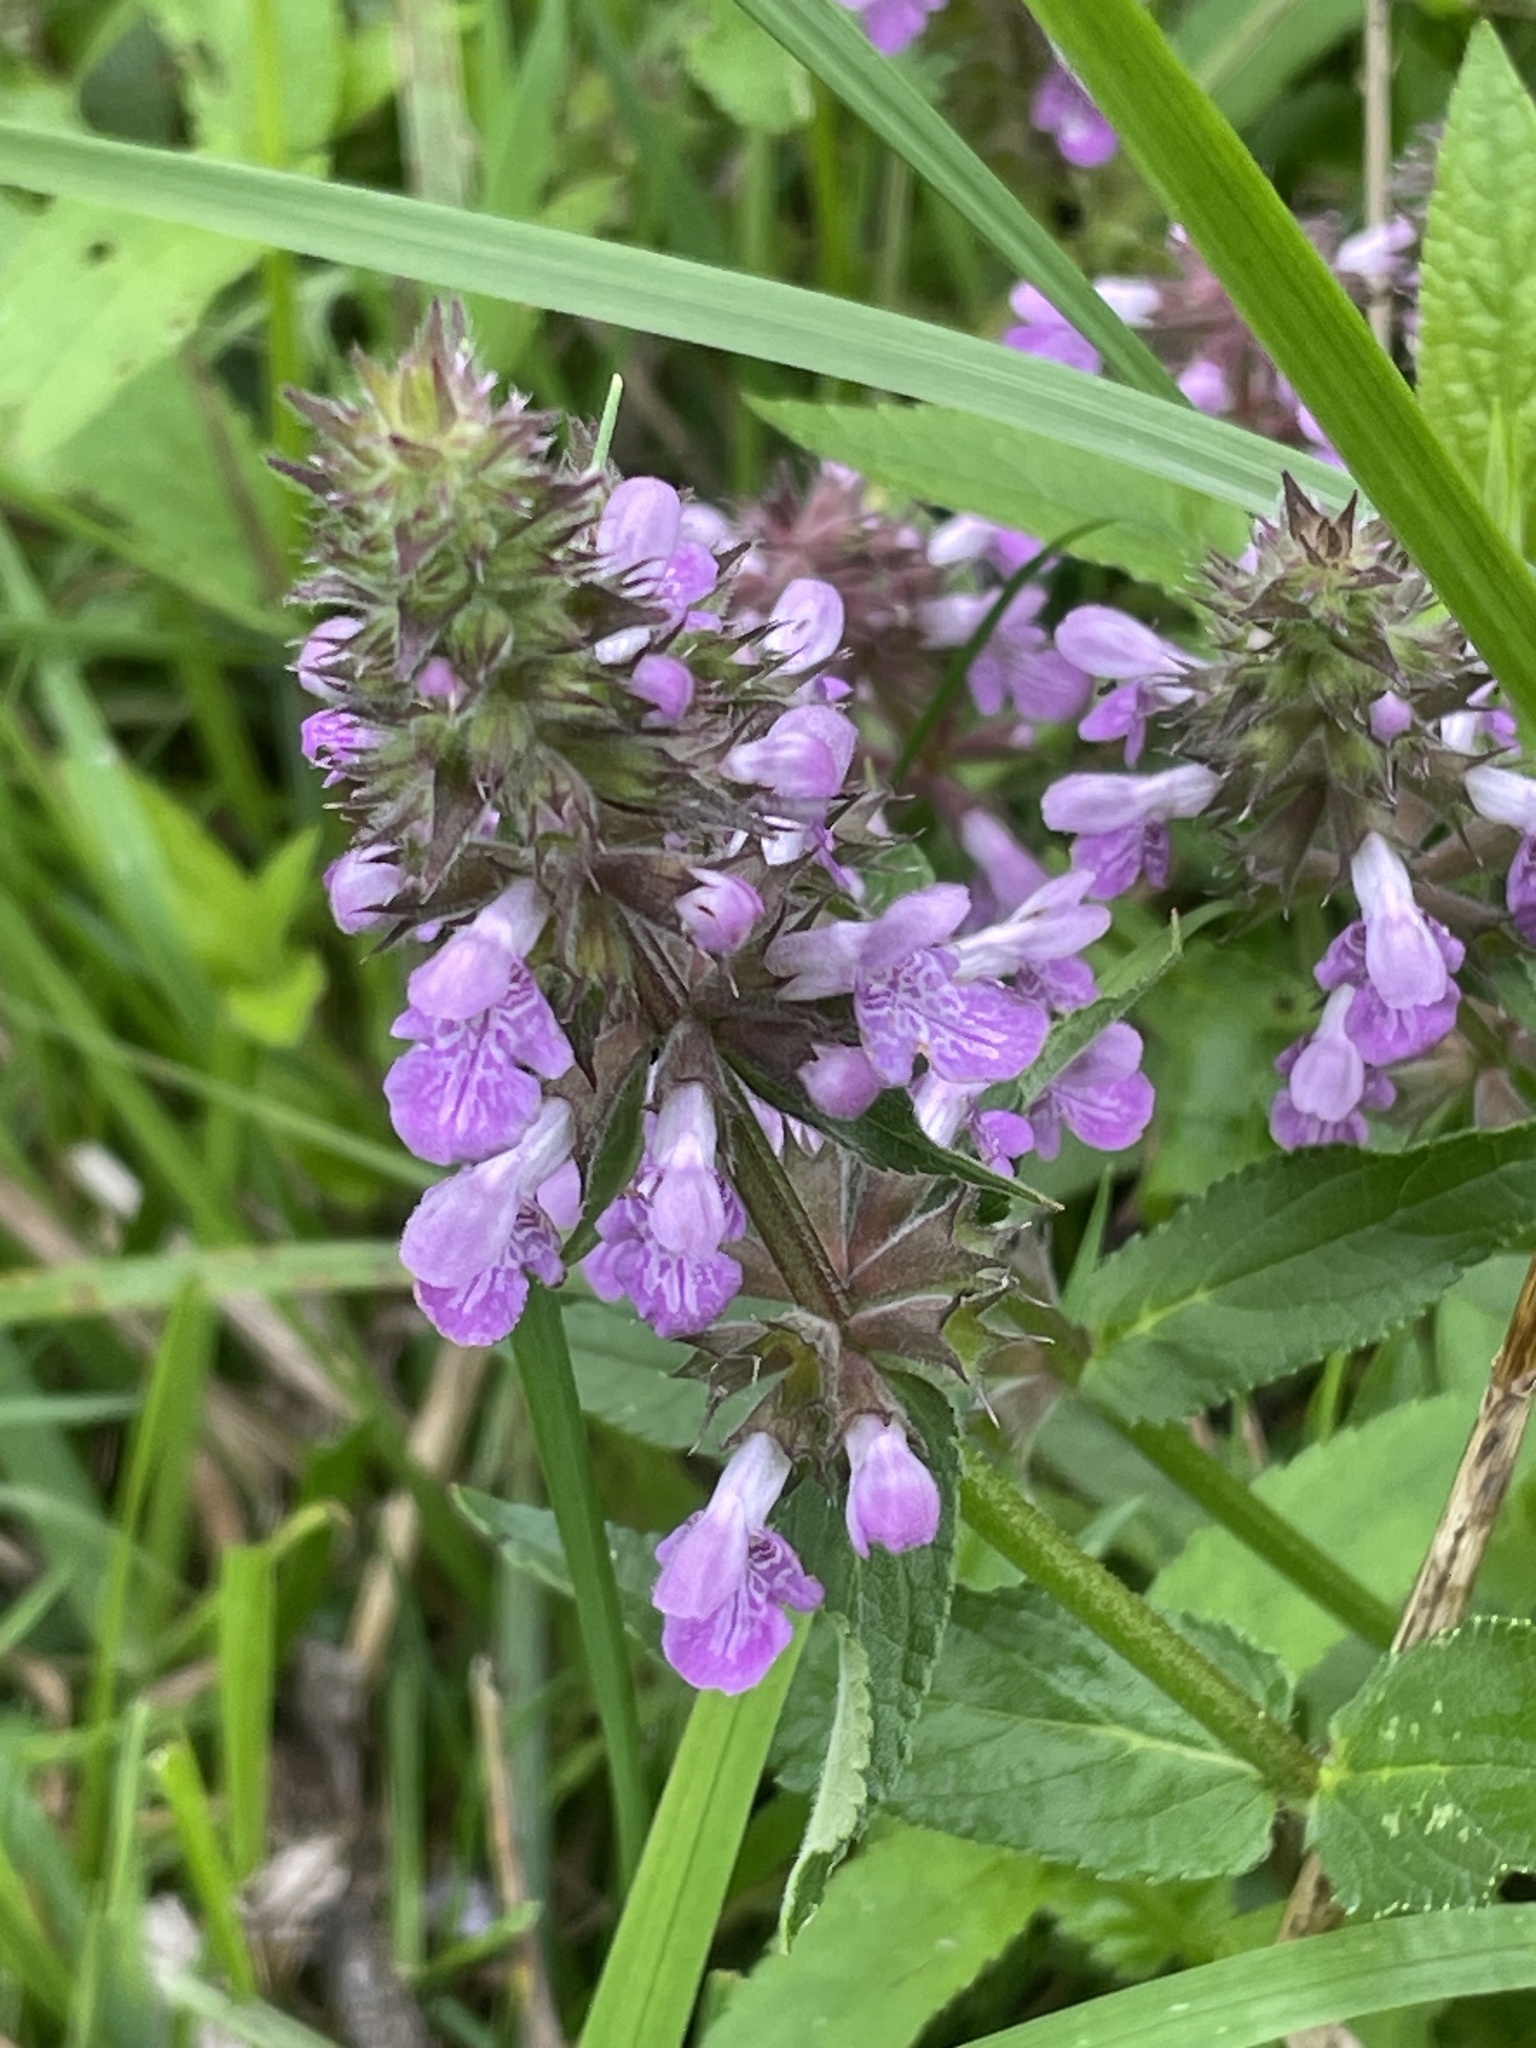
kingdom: Plantae
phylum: Tracheophyta
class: Magnoliopsida
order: Lamiales
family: Lamiaceae
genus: Stachys
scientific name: Stachys palustris
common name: Marsh woundwort
